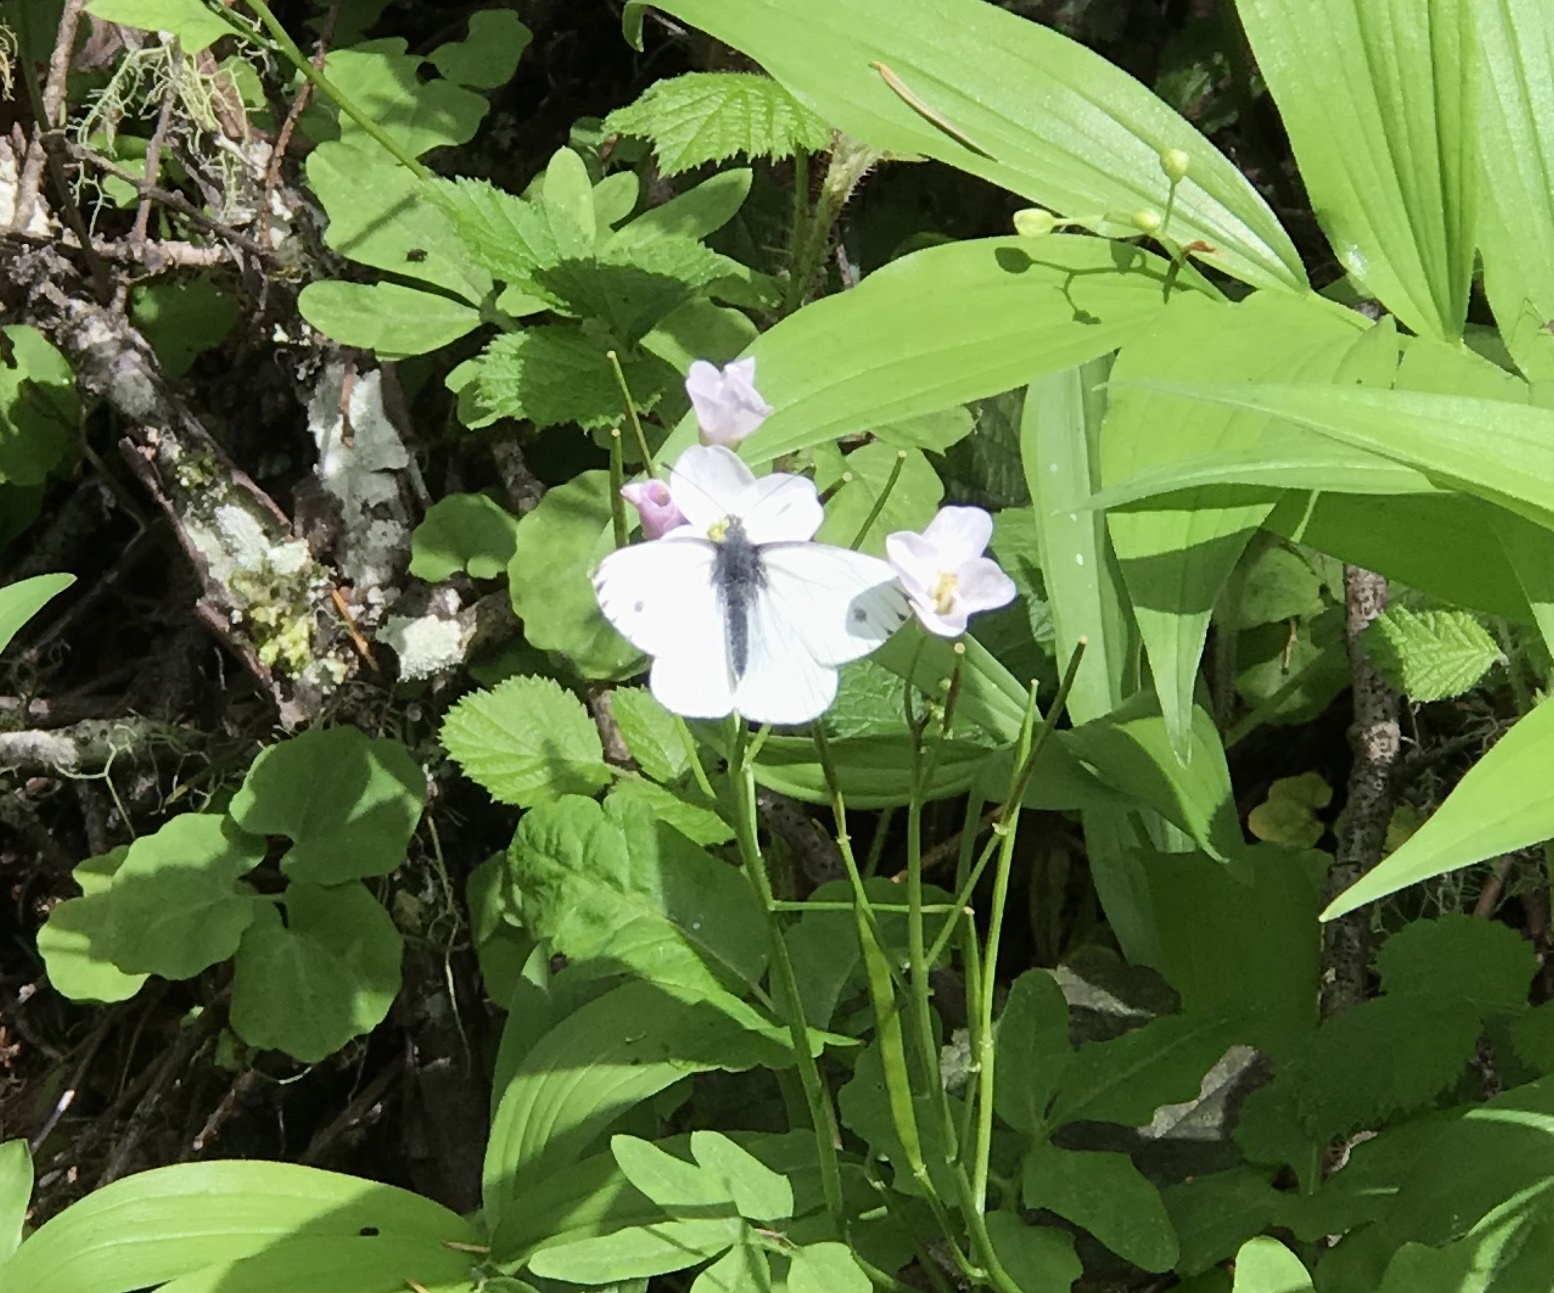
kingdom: Animalia
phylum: Arthropoda
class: Insecta
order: Lepidoptera
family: Pieridae
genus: Pieris
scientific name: Pieris marginalis
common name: Margined white
